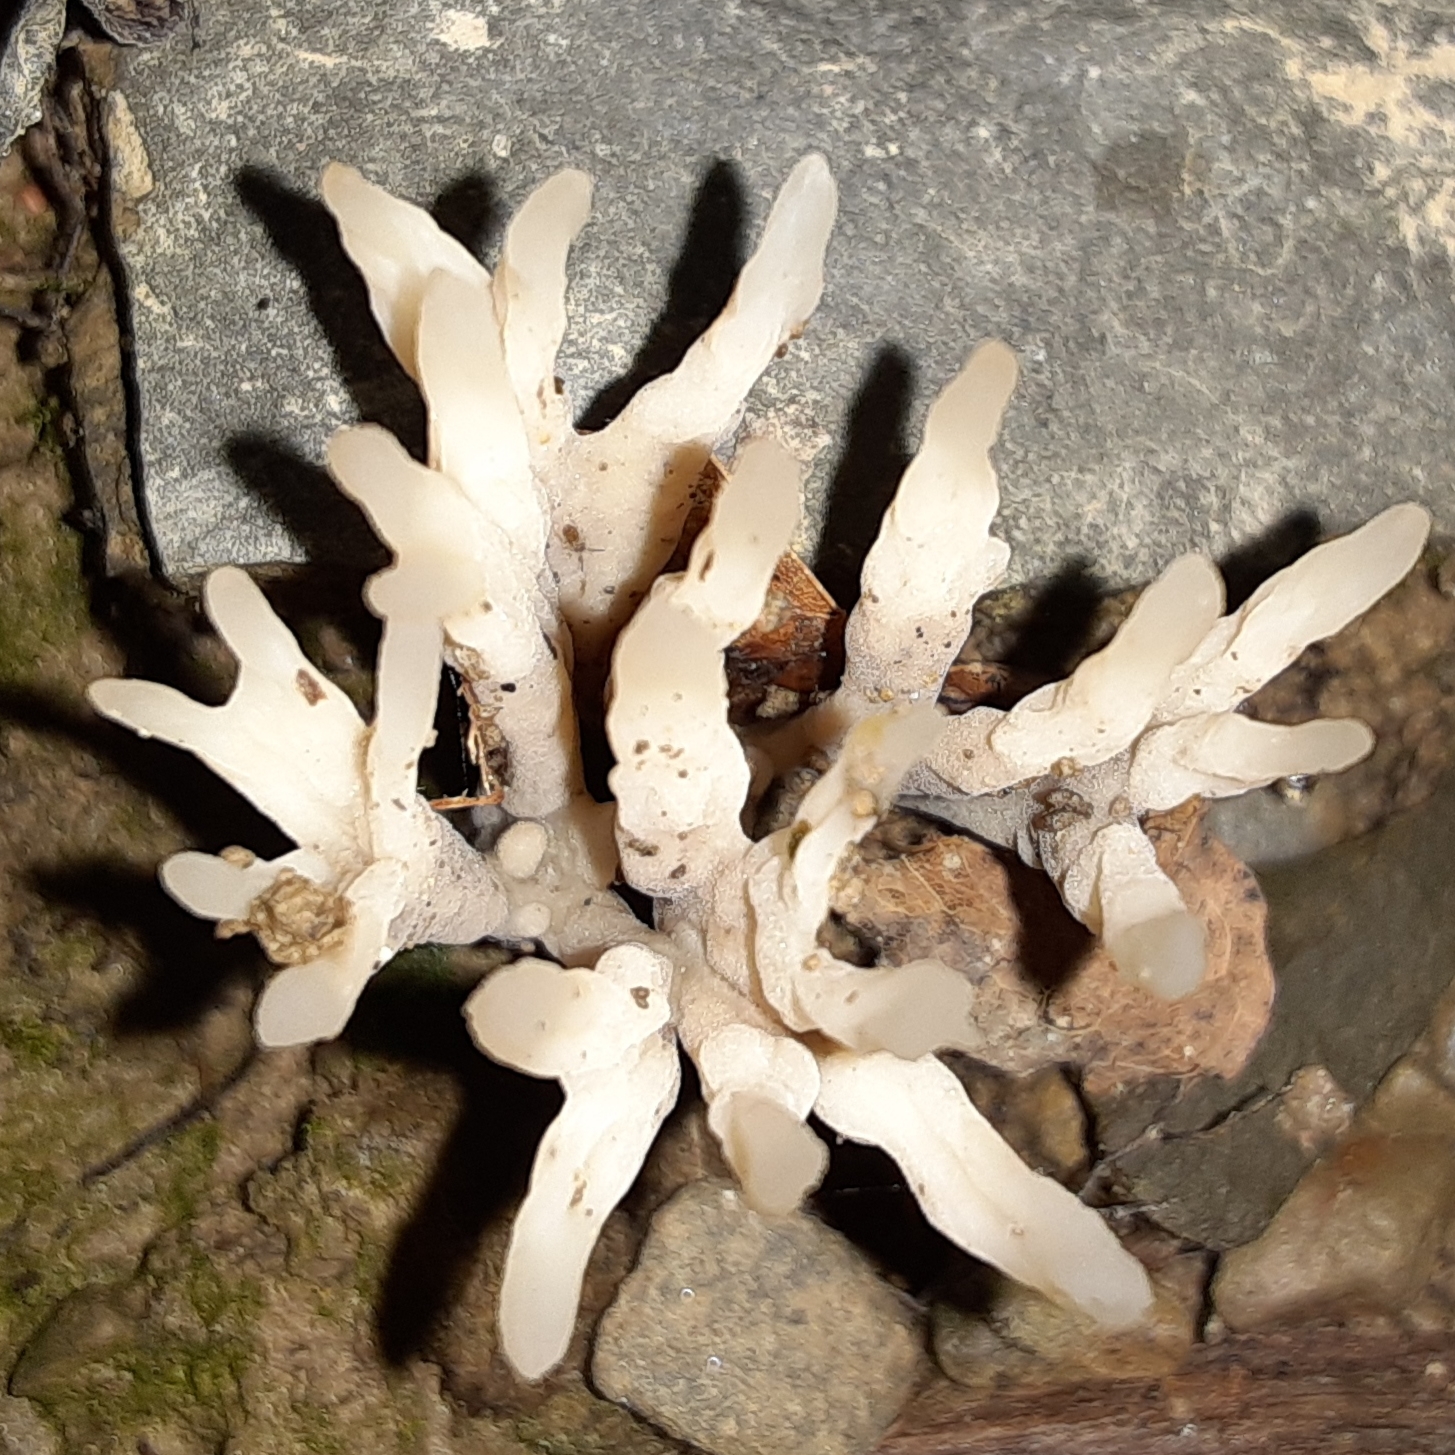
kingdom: Fungi
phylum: Basidiomycota
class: Agaricomycetes
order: Sebacinales
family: Sebacinaceae
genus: Sebacina
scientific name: Sebacina schweinitzii
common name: Jellied false coral fungus
